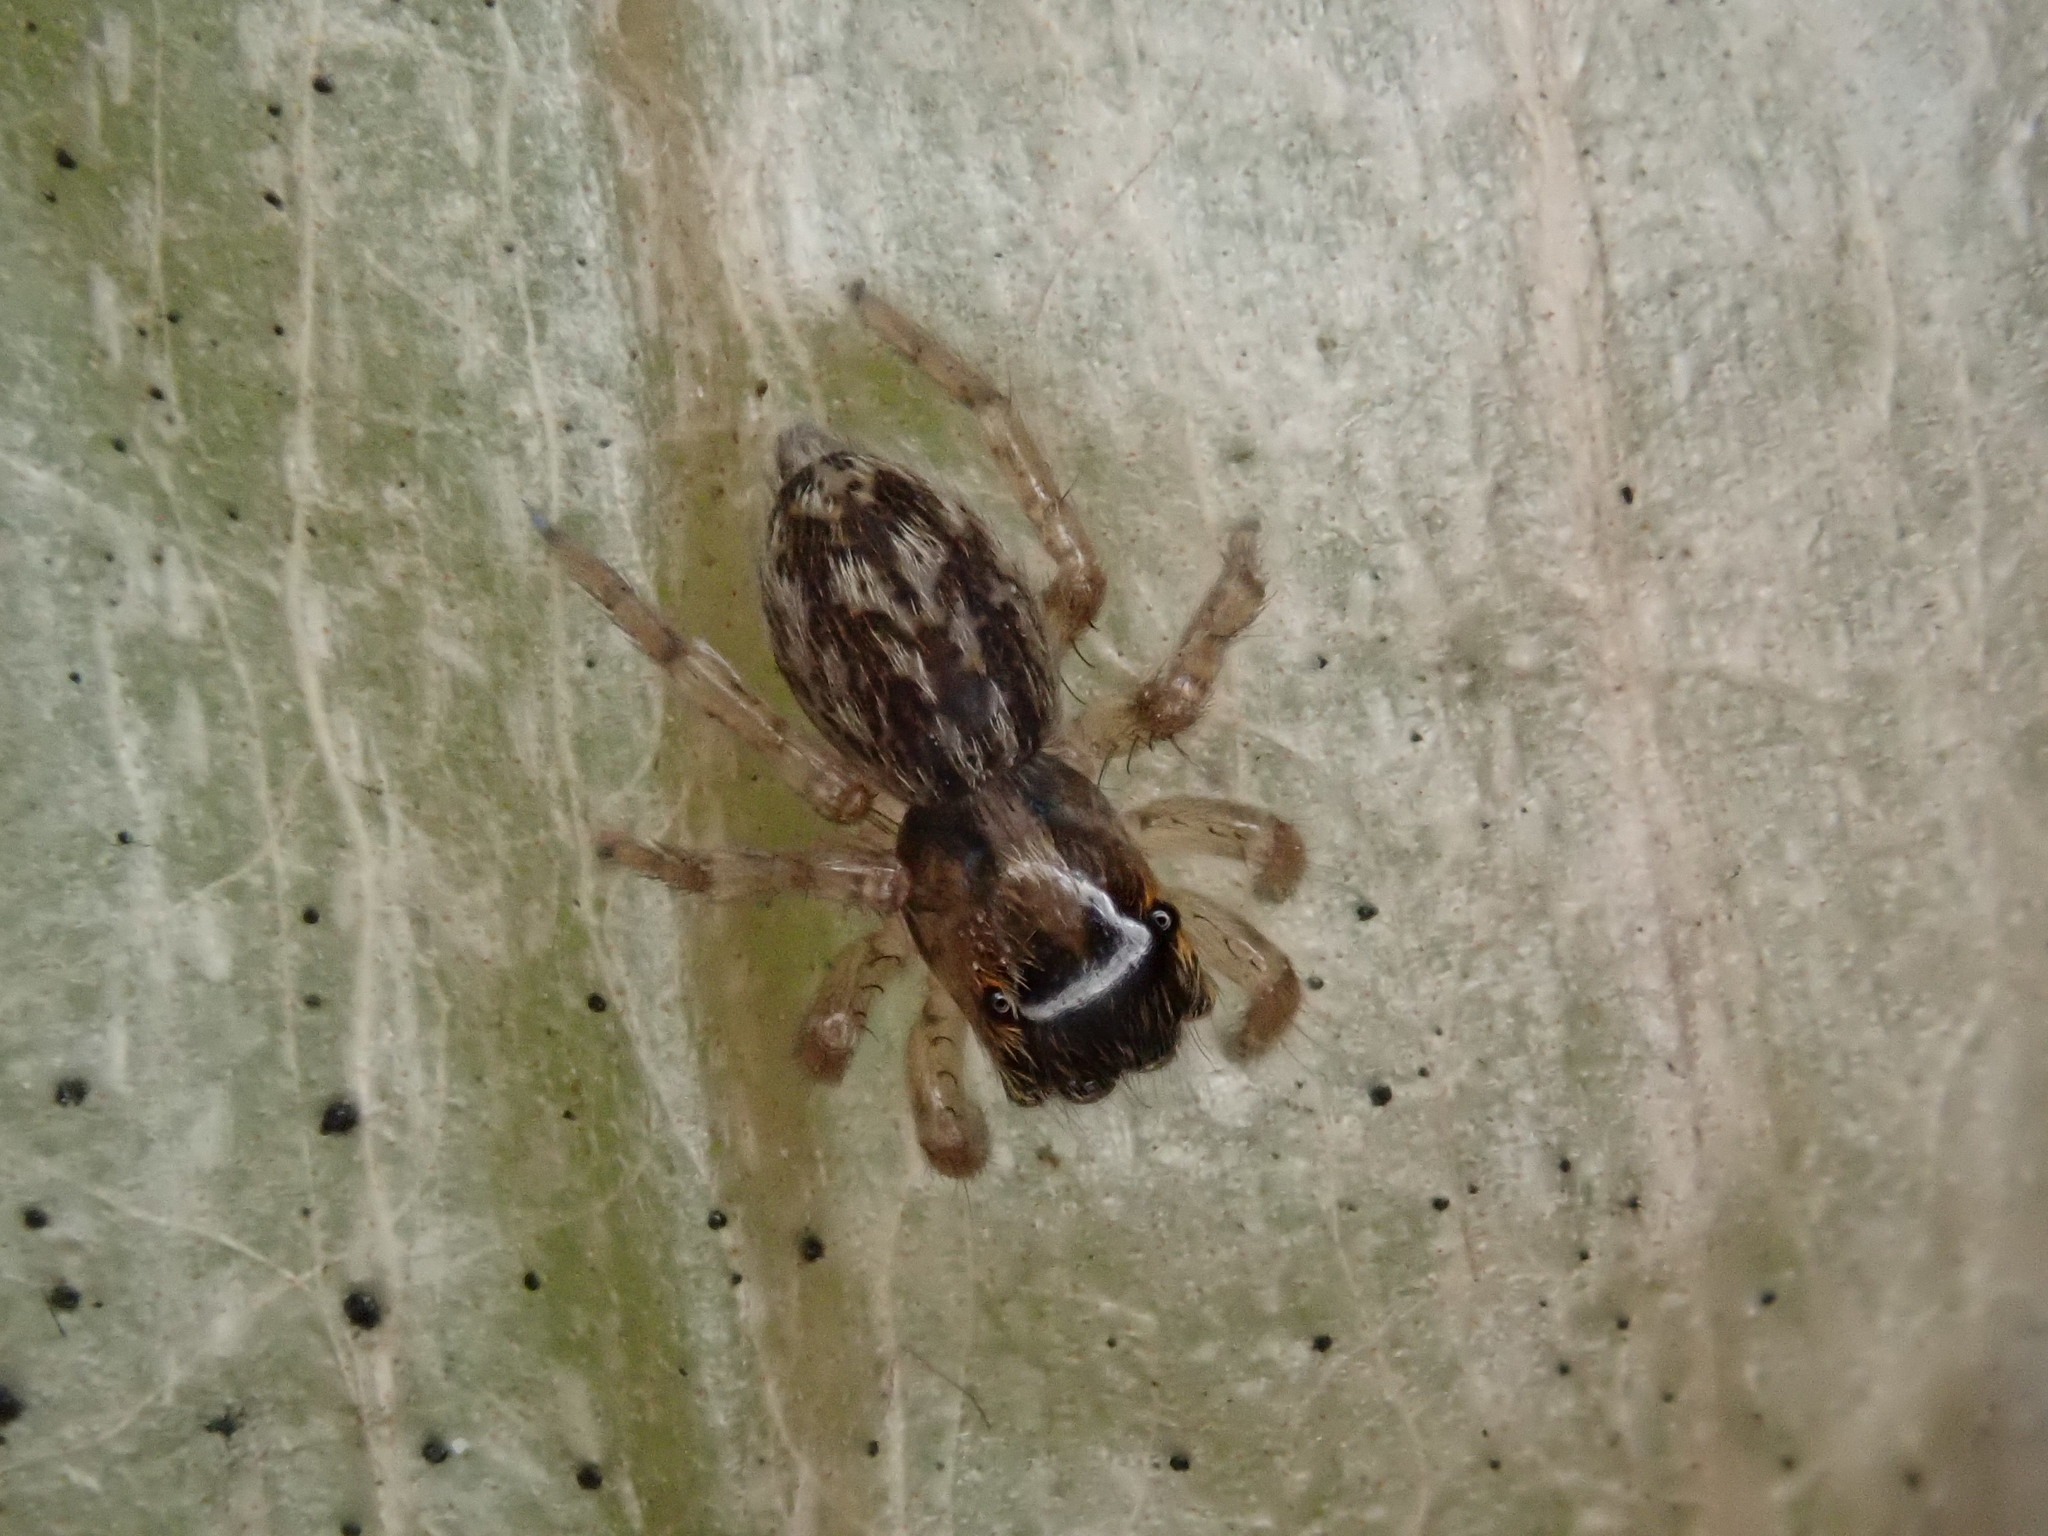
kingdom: Animalia
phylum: Arthropoda
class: Arachnida
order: Araneae
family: Salticidae
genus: Saitis
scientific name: Saitis barbipes
